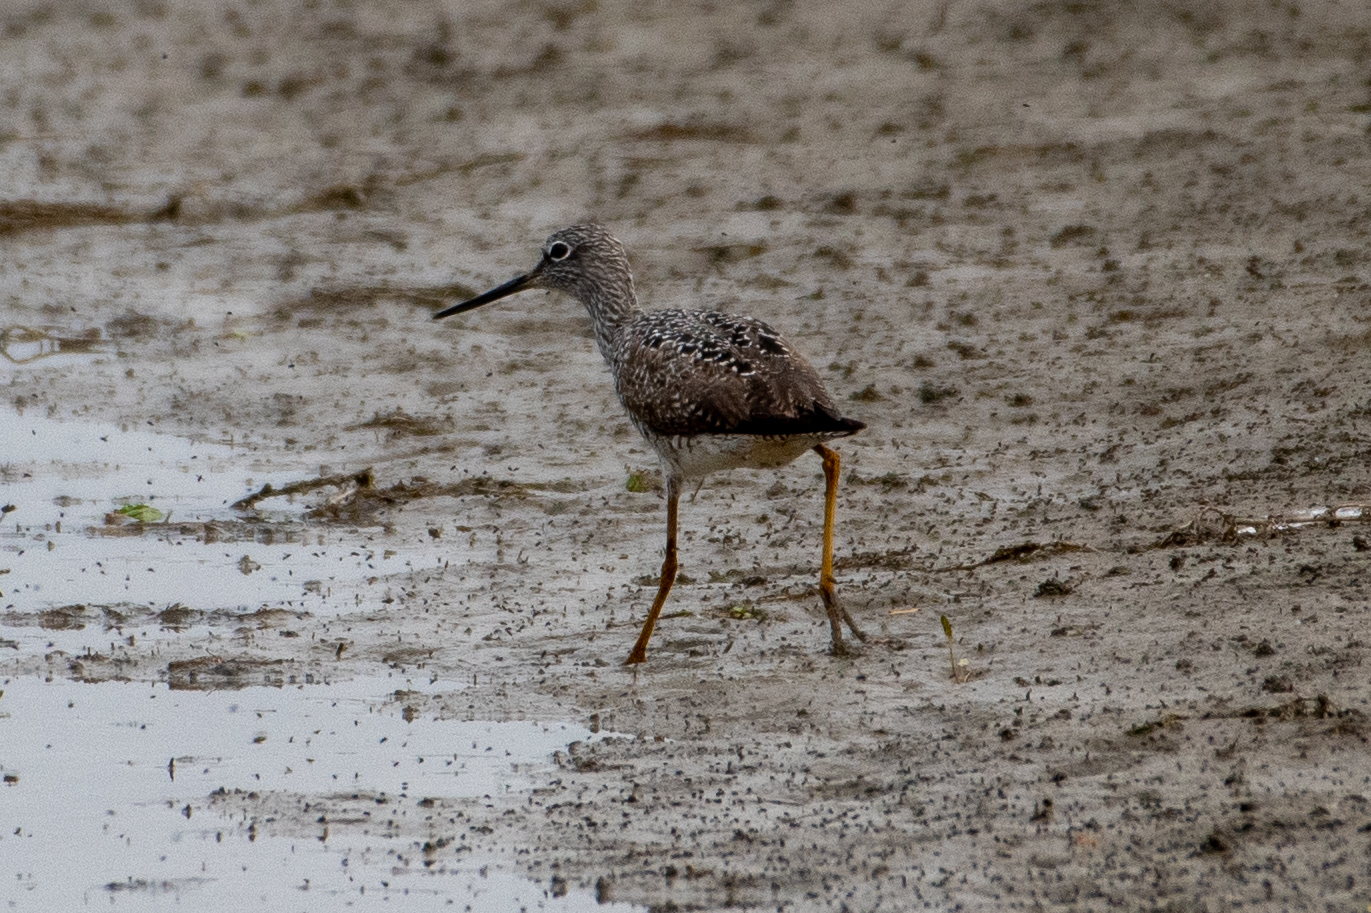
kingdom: Animalia
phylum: Chordata
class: Aves
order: Charadriiformes
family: Scolopacidae
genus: Tringa
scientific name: Tringa melanoleuca
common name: Greater yellowlegs
